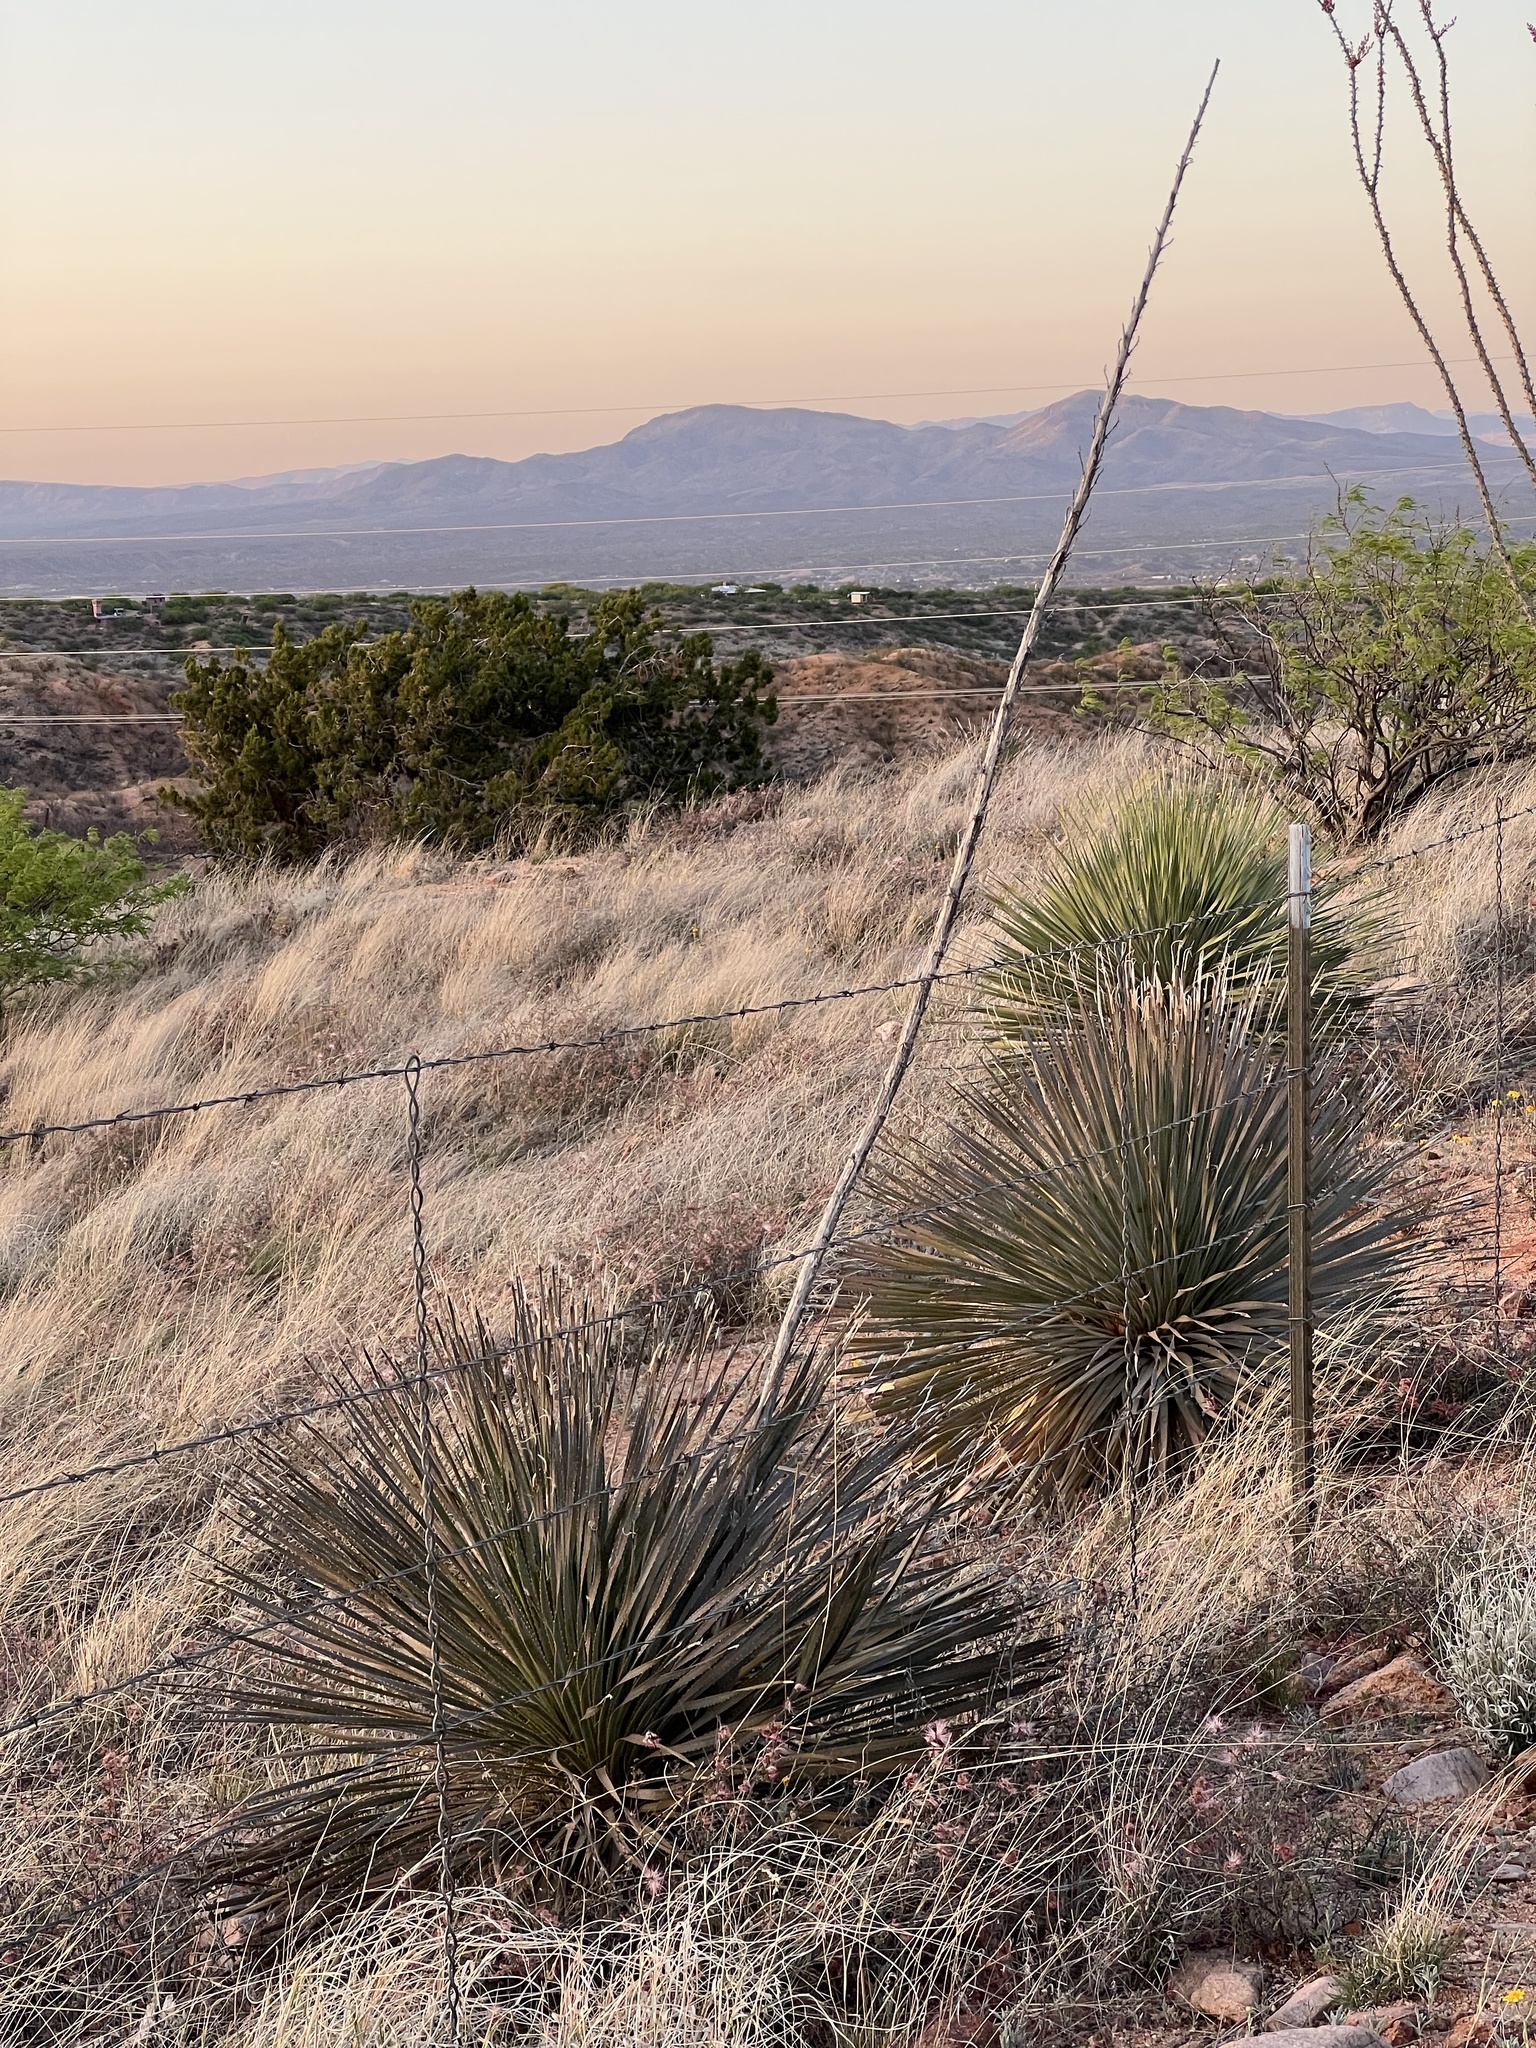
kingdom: Plantae
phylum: Tracheophyta
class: Liliopsida
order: Asparagales
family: Asparagaceae
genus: Dasylirion
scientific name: Dasylirion wheeleri
